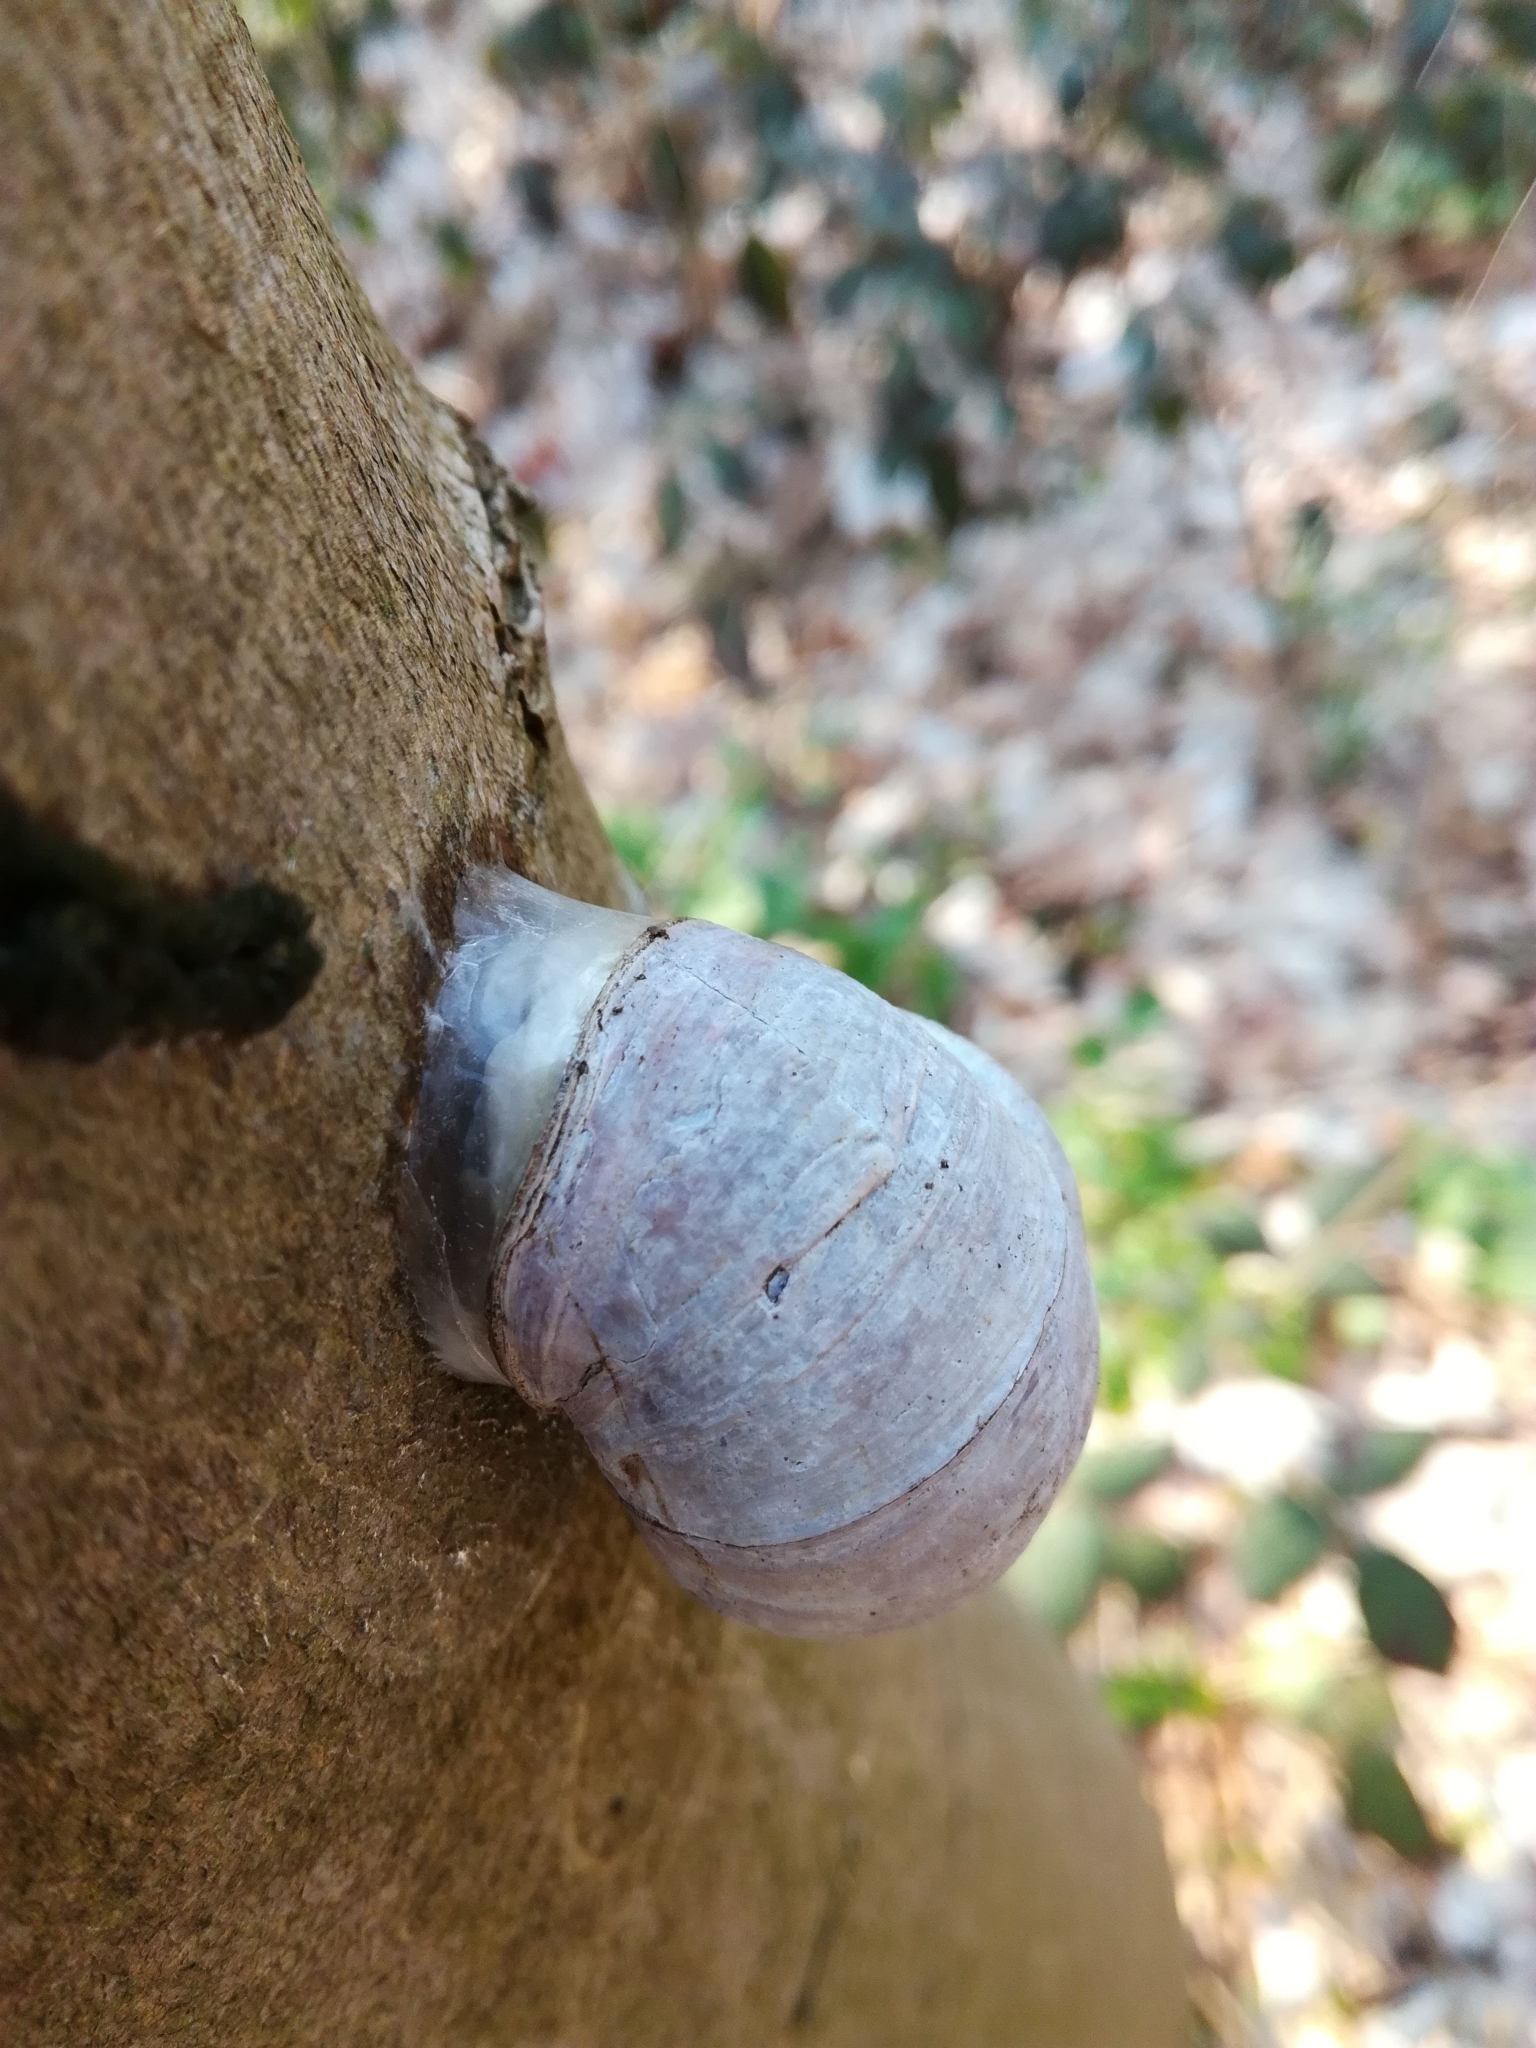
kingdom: Animalia
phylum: Mollusca
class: Gastropoda
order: Stylommatophora
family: Helicidae
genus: Helix
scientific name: Helix pomatia
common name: Roman snail
